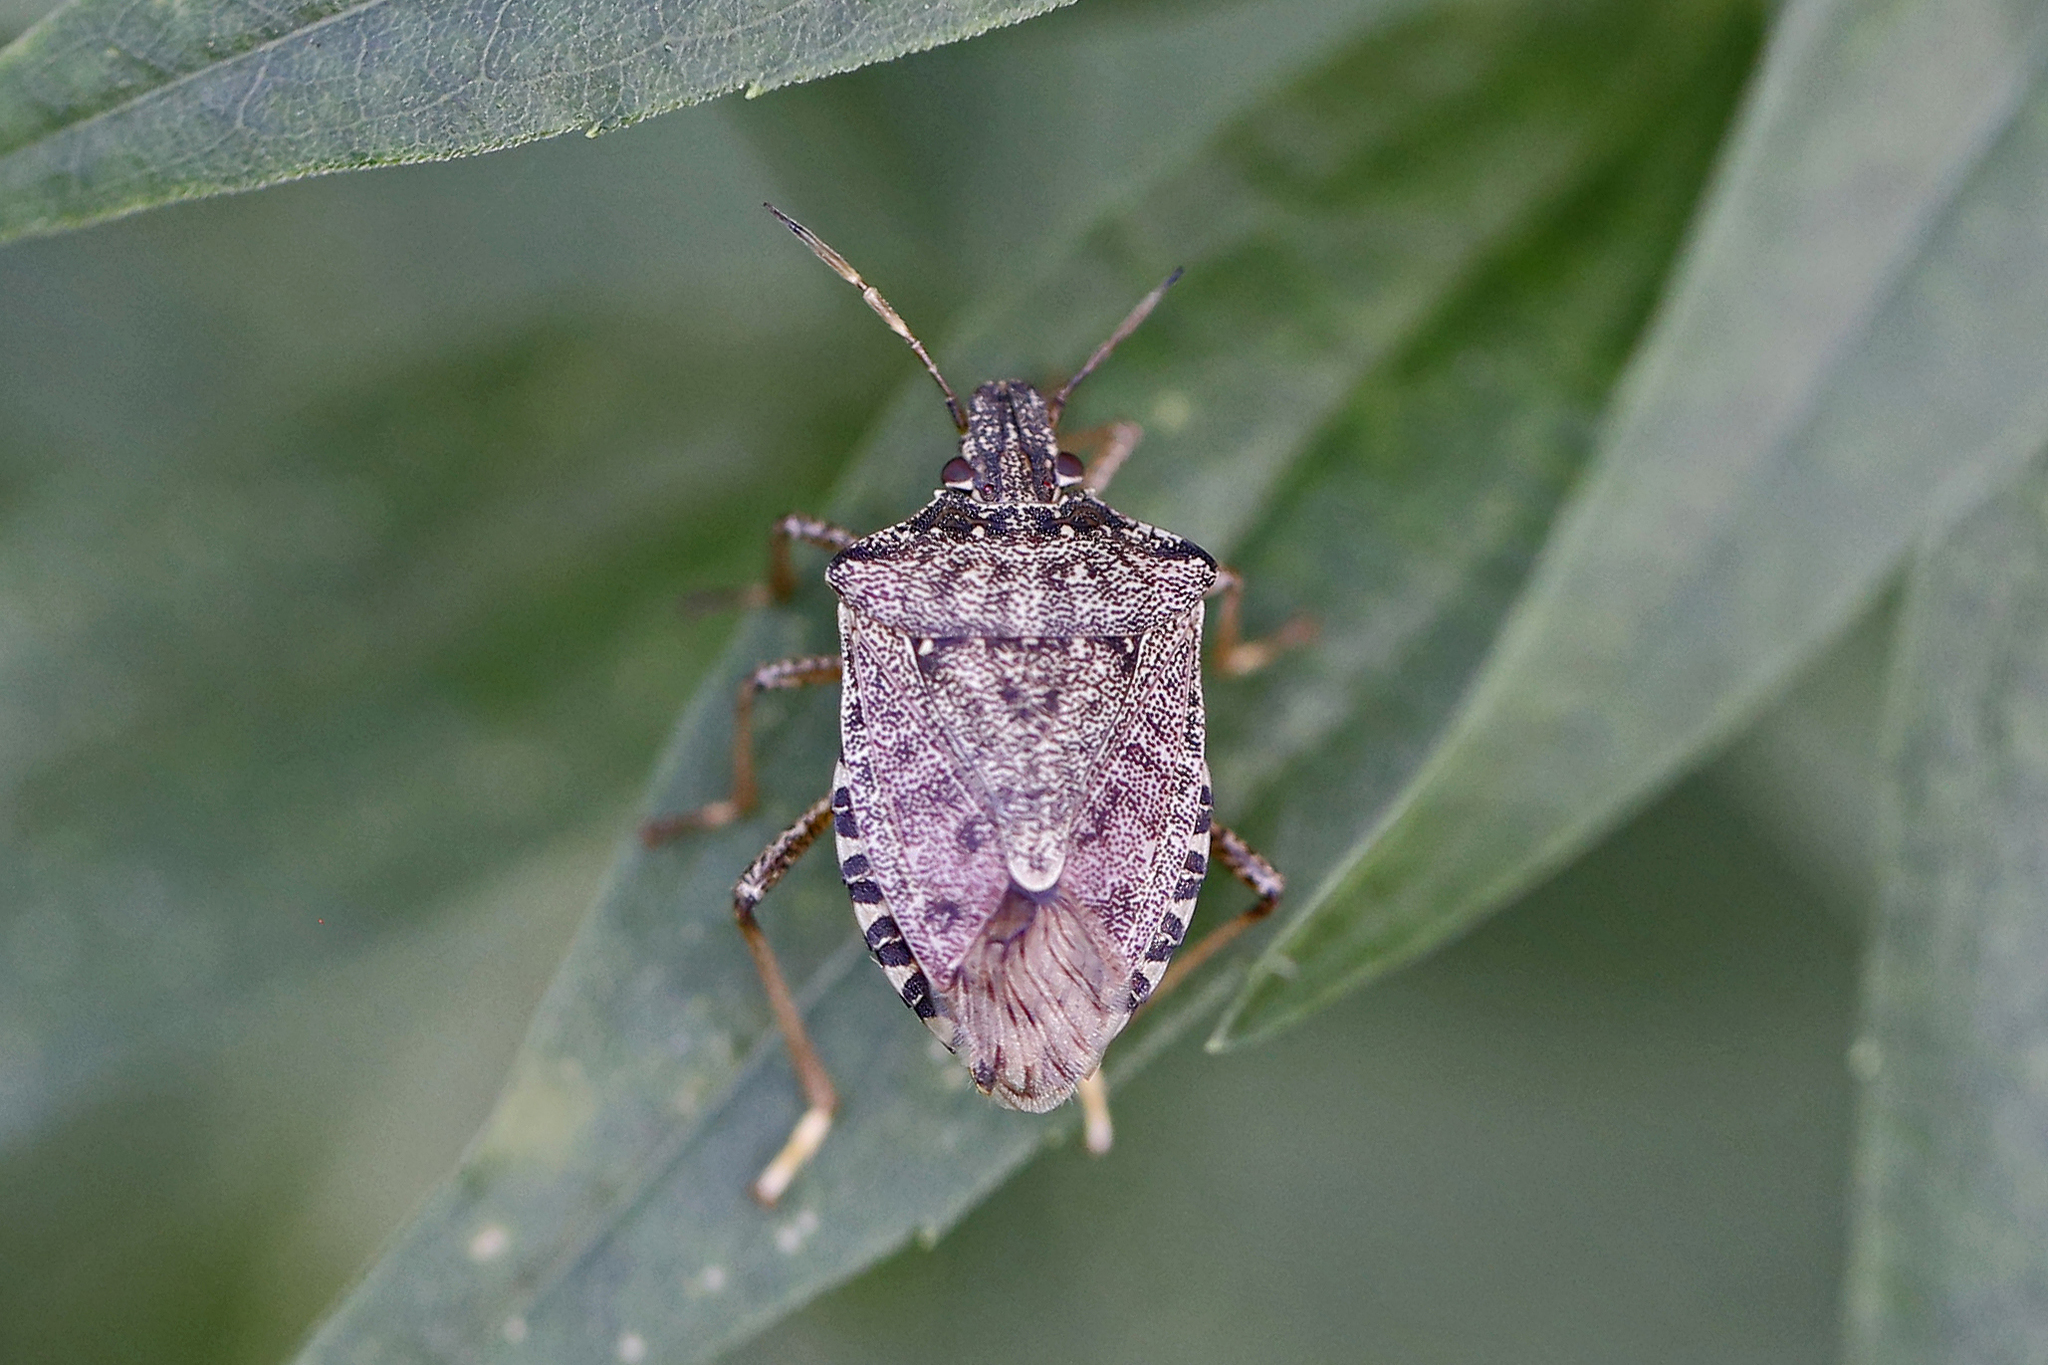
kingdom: Animalia
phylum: Arthropoda
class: Insecta
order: Hemiptera
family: Pentatomidae
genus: Halyomorpha
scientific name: Halyomorpha halys
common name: Brown marmorated stink bug
